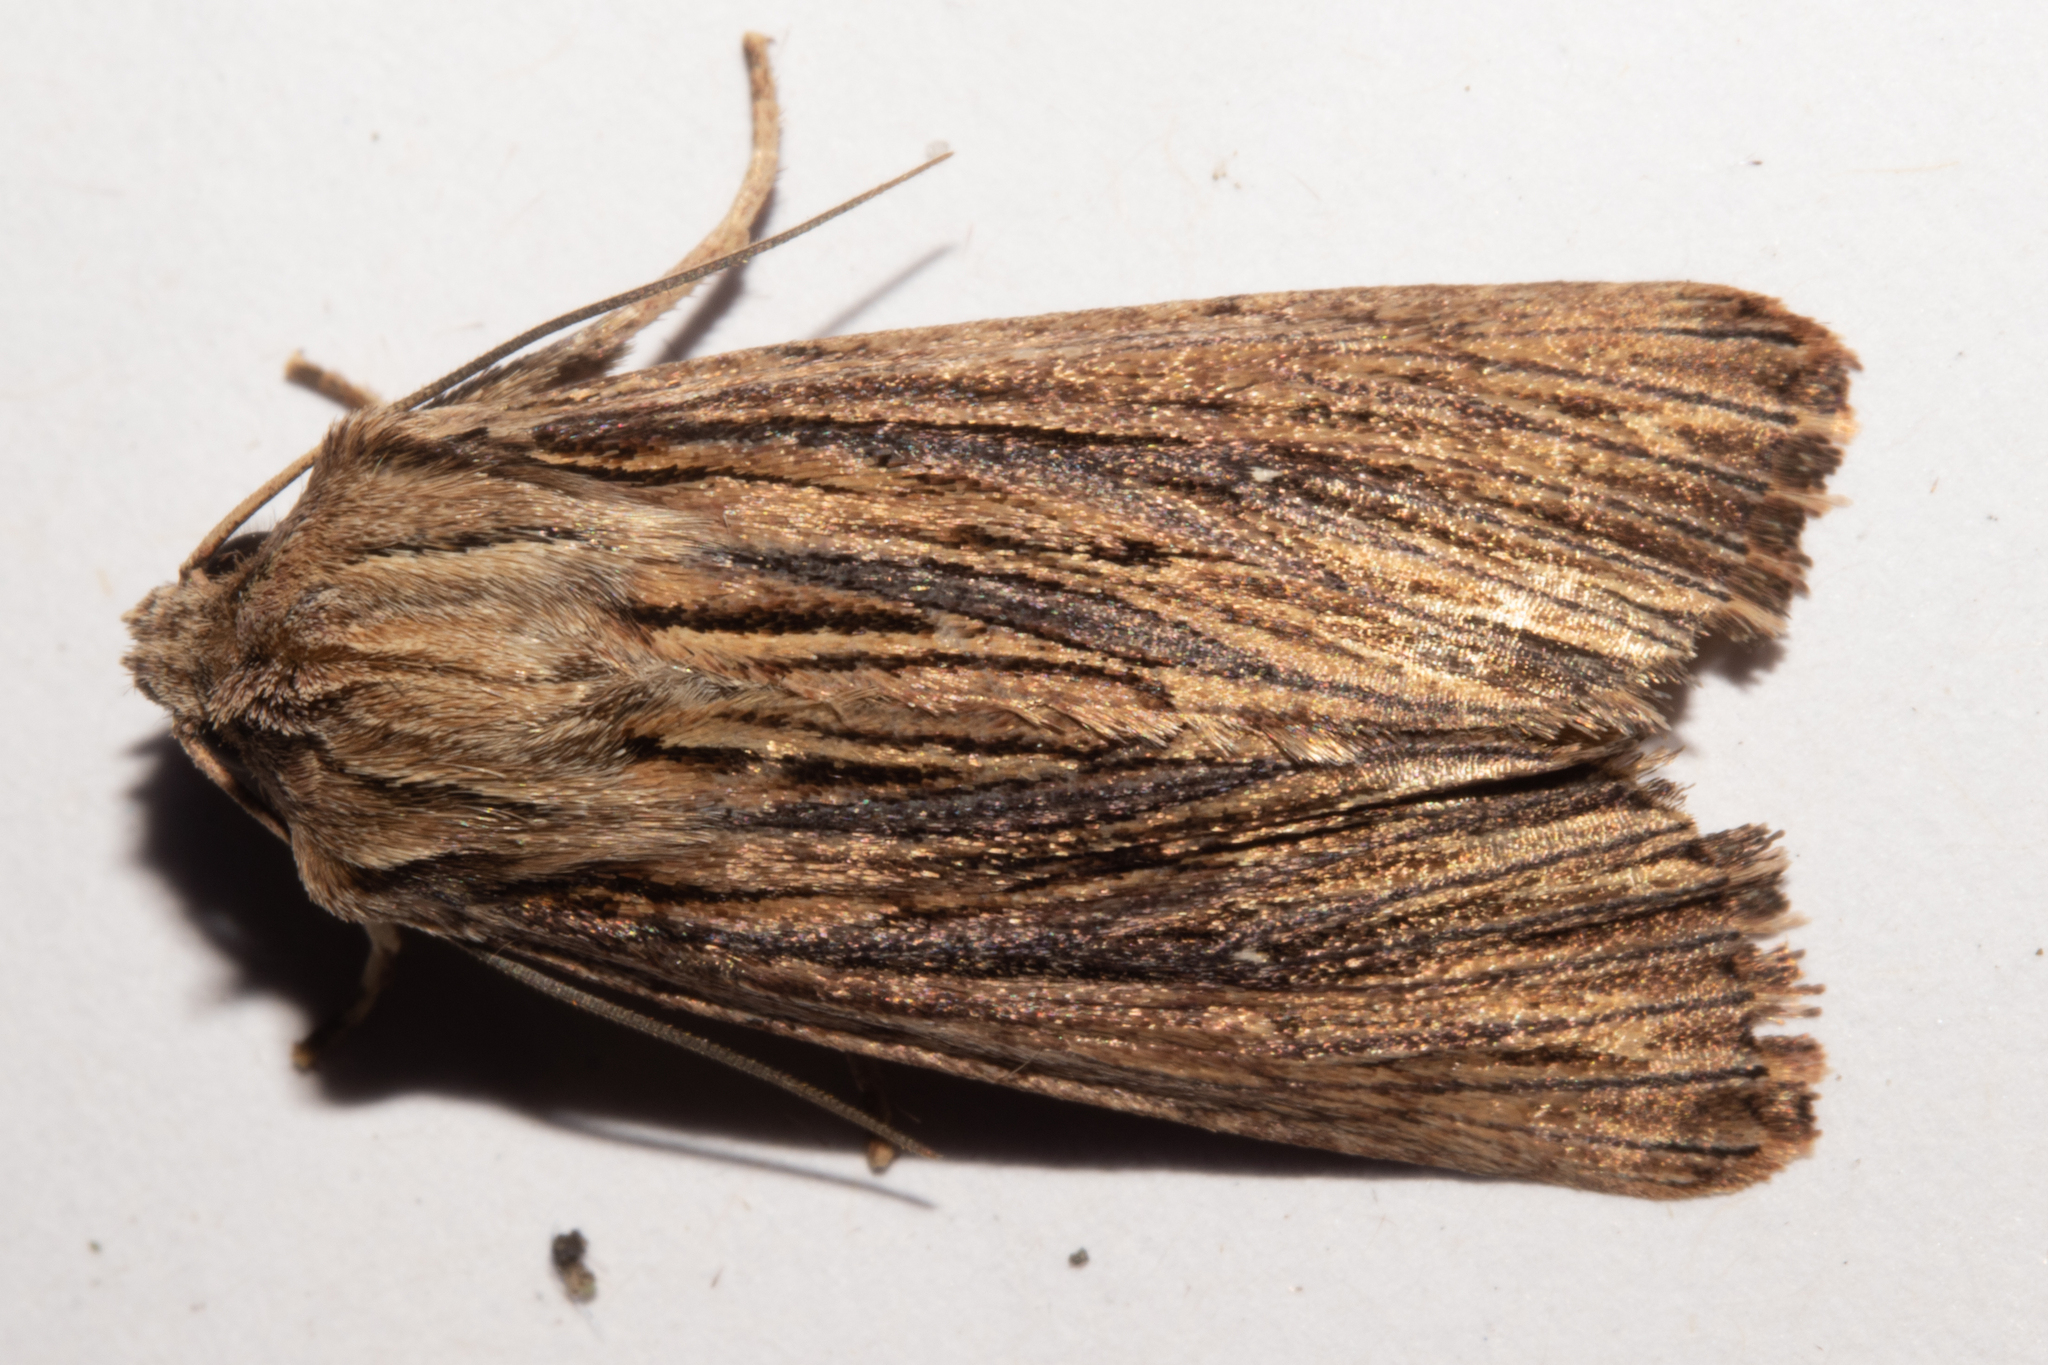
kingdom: Animalia
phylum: Arthropoda
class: Insecta
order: Lepidoptera
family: Noctuidae
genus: Ichneutica
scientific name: Ichneutica
